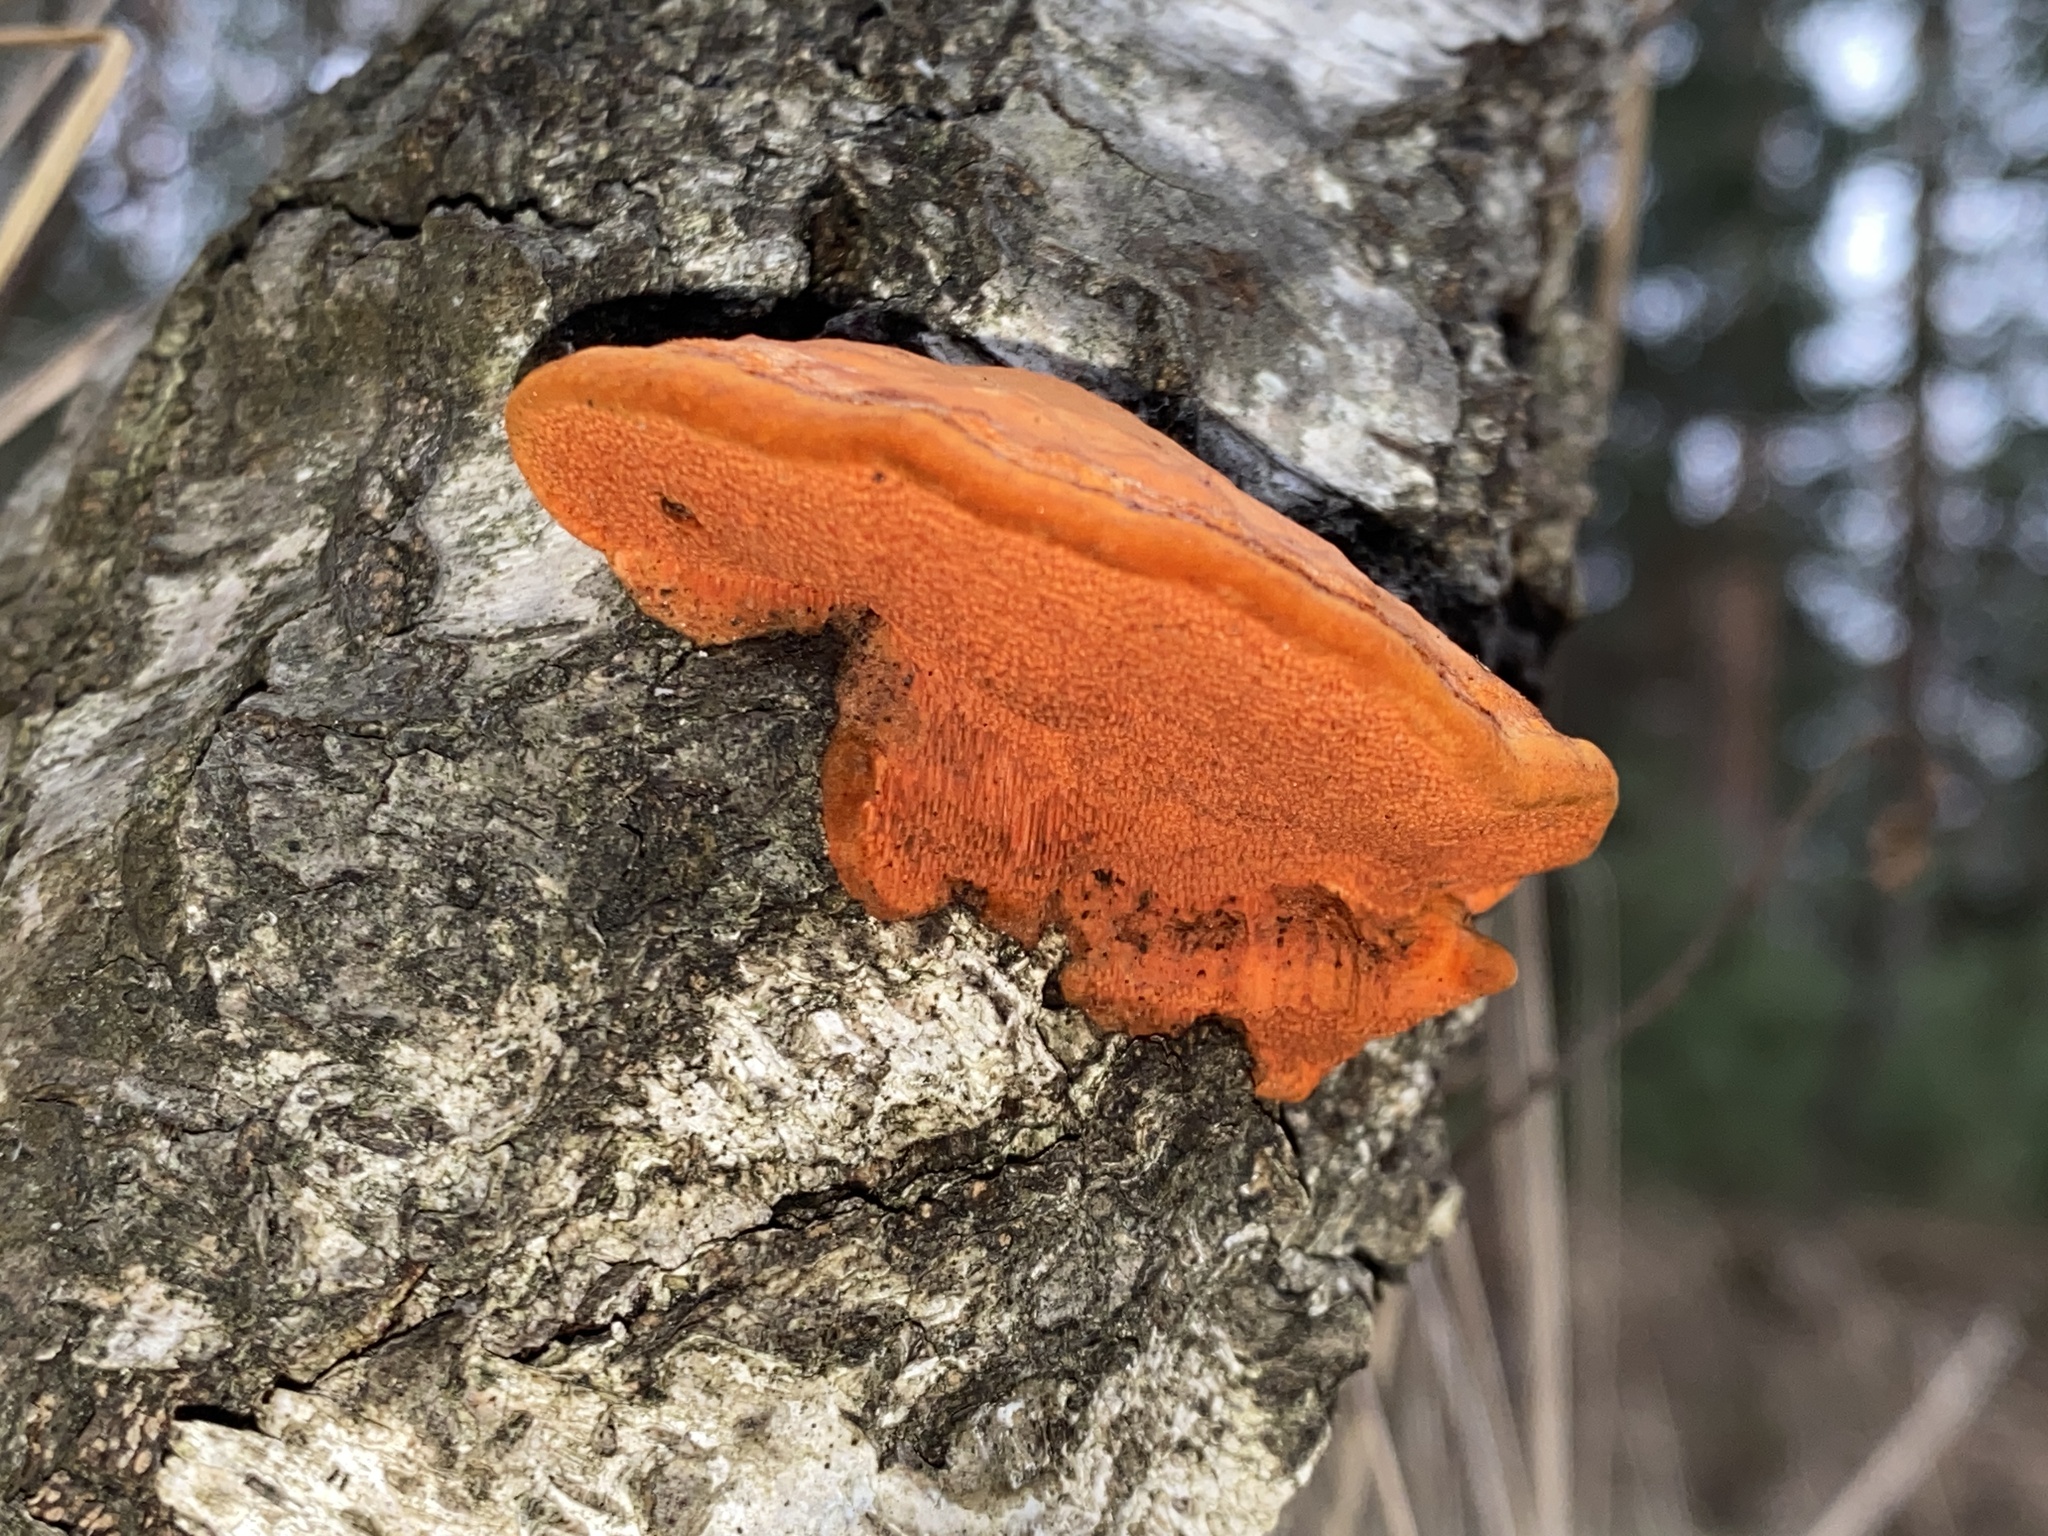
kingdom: Fungi
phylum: Basidiomycota
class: Agaricomycetes
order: Polyporales
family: Polyporaceae
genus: Trametes
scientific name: Trametes cinnabarina
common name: Northern cinnabar polypore
